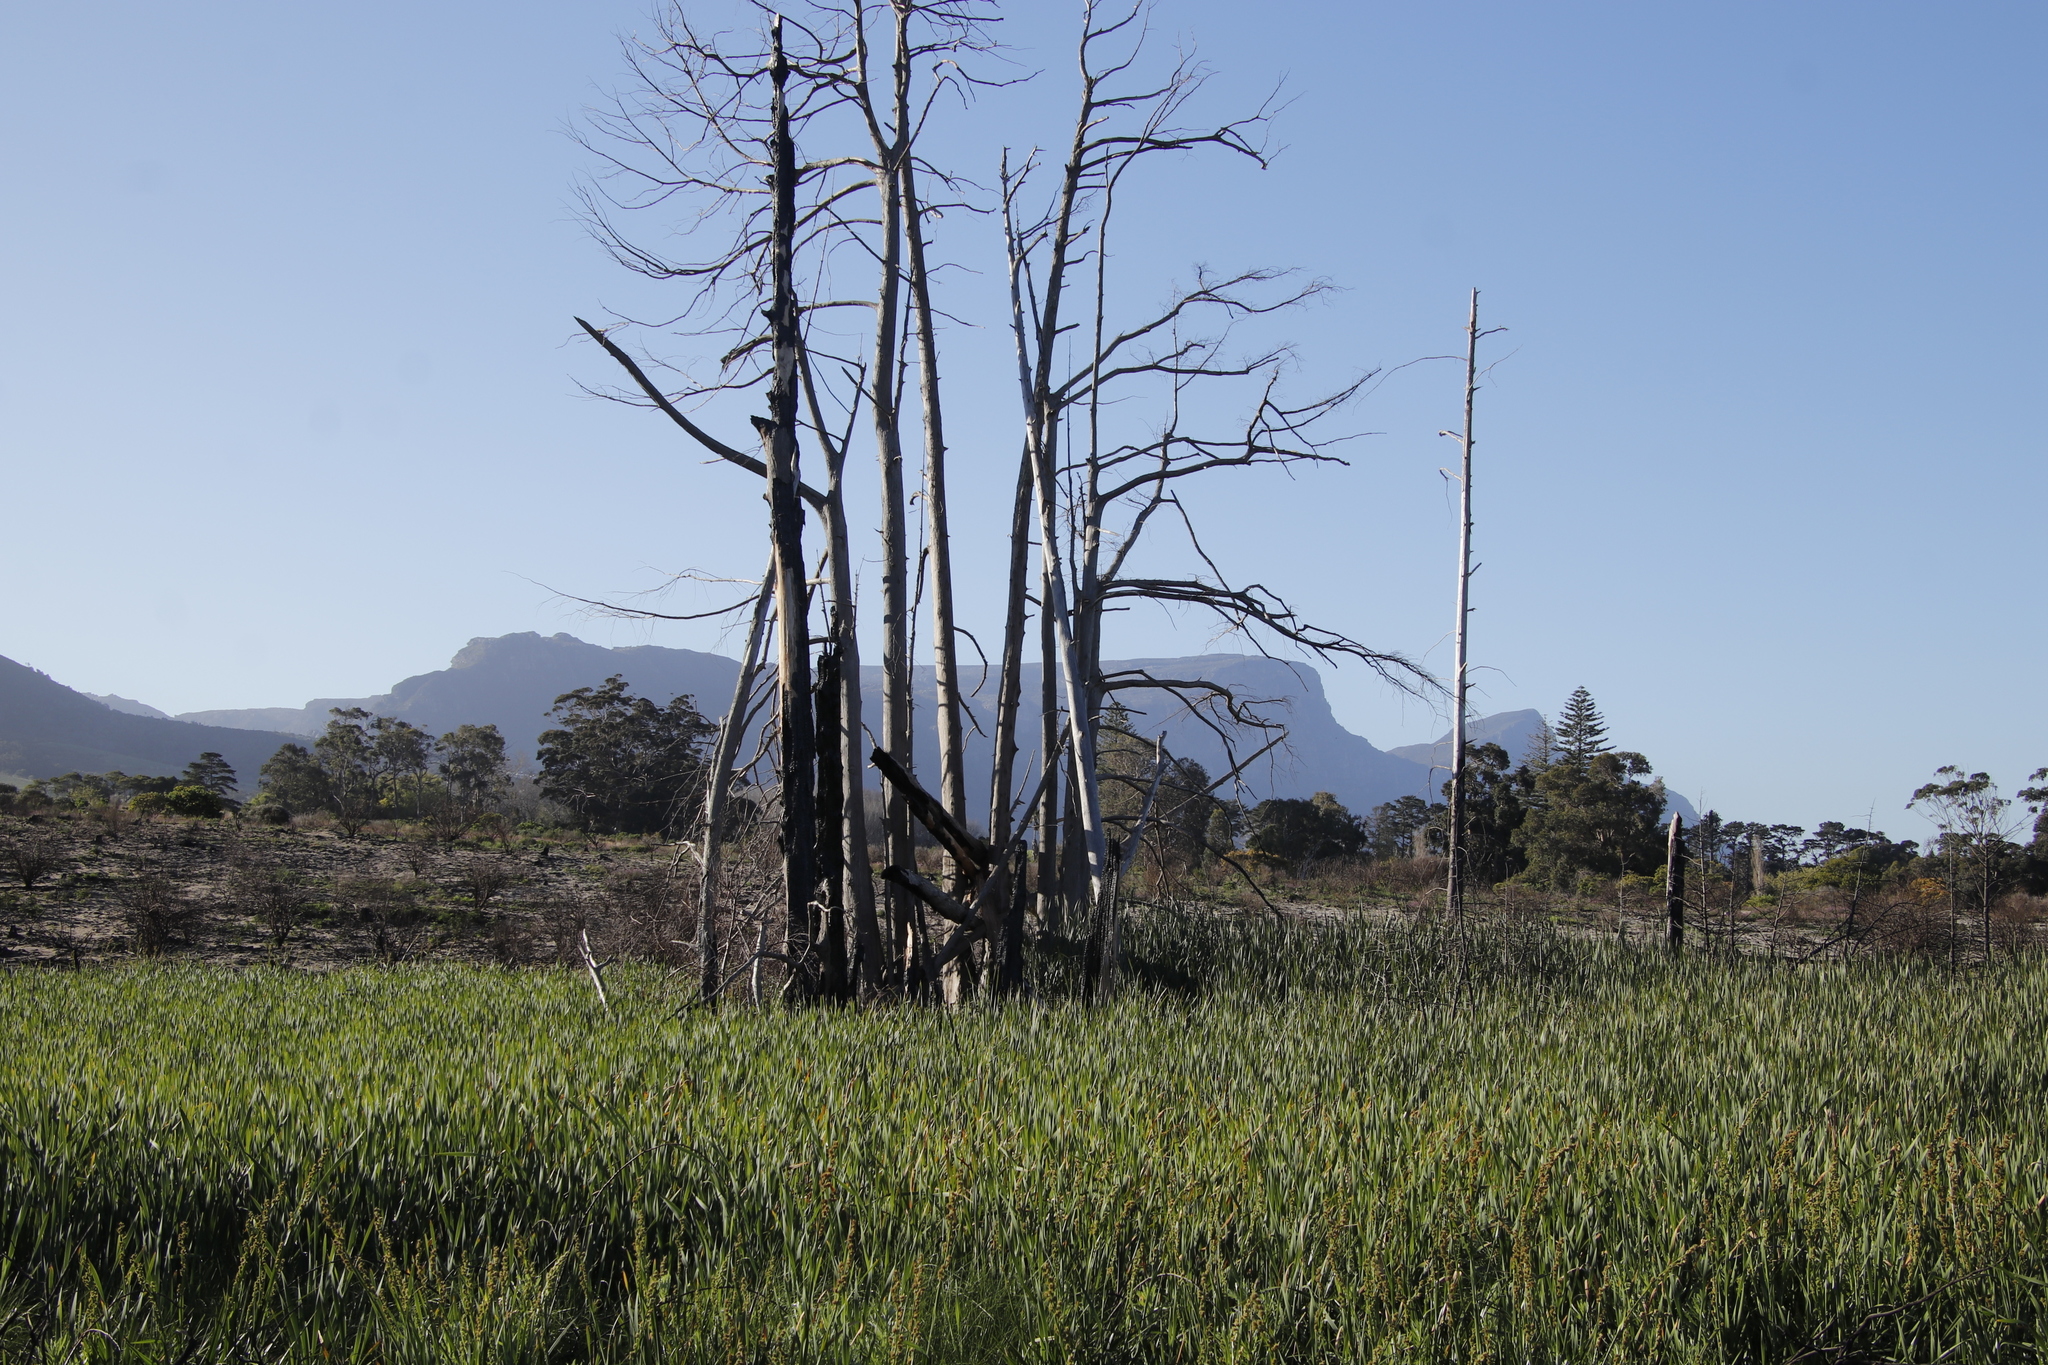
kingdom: Plantae
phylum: Tracheophyta
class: Pinopsida
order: Pinales
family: Cupressaceae
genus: Taxodium
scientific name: Taxodium distichum
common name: Bald cypress
